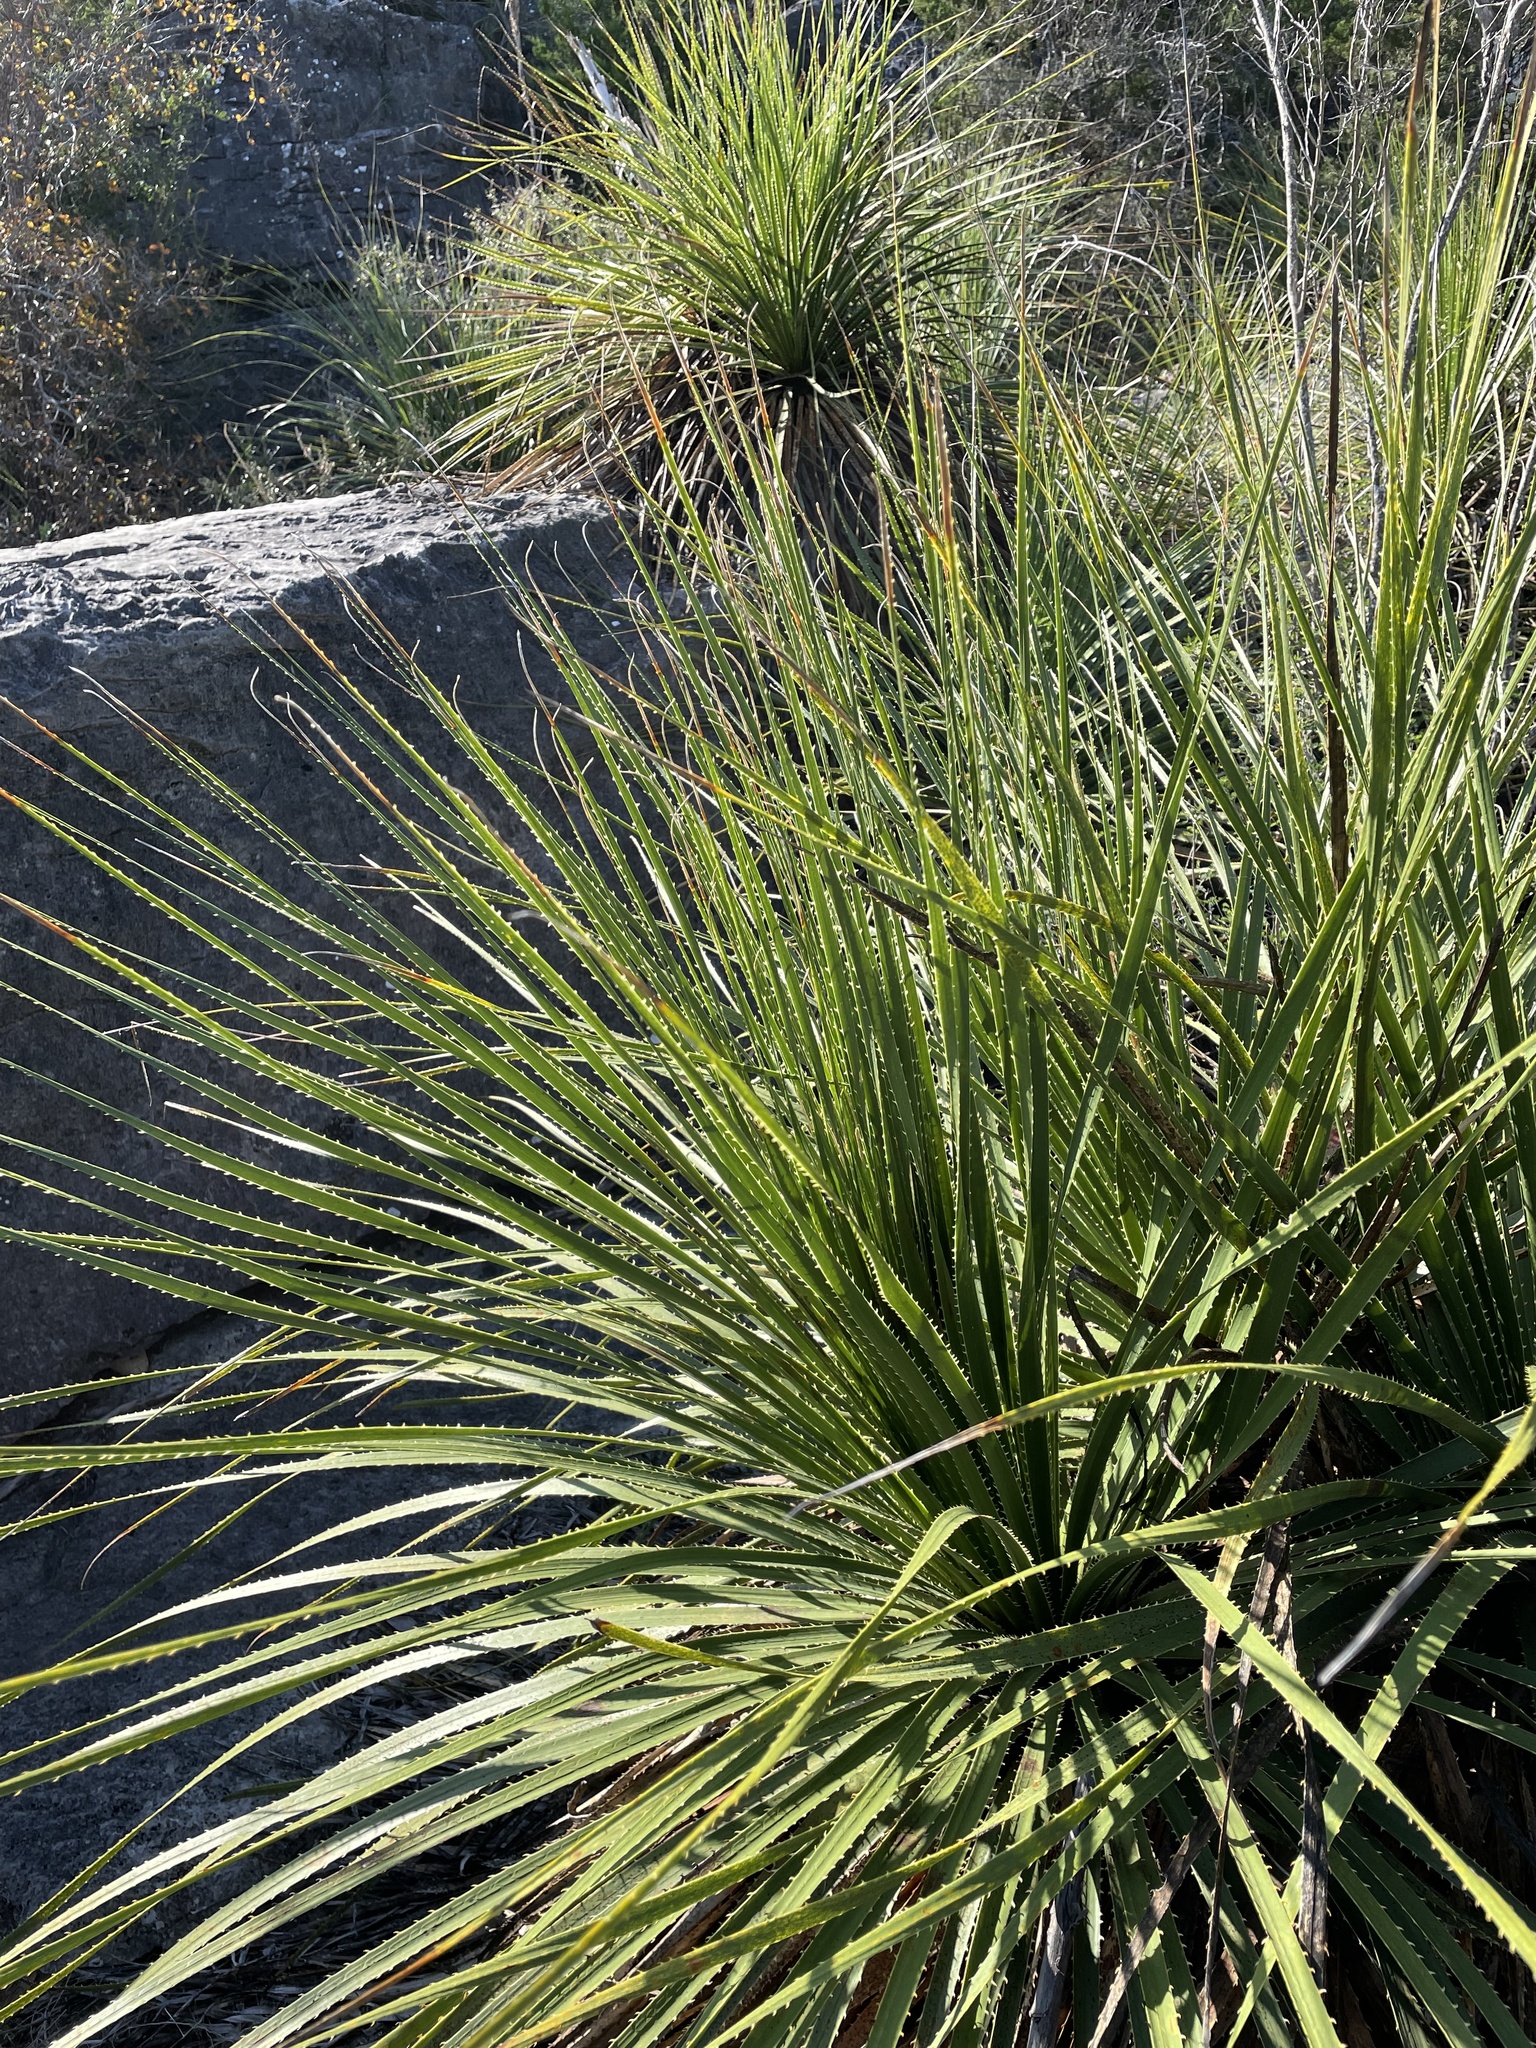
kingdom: Plantae
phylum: Tracheophyta
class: Liliopsida
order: Asparagales
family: Asparagaceae
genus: Dasylirion
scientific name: Dasylirion texanum
